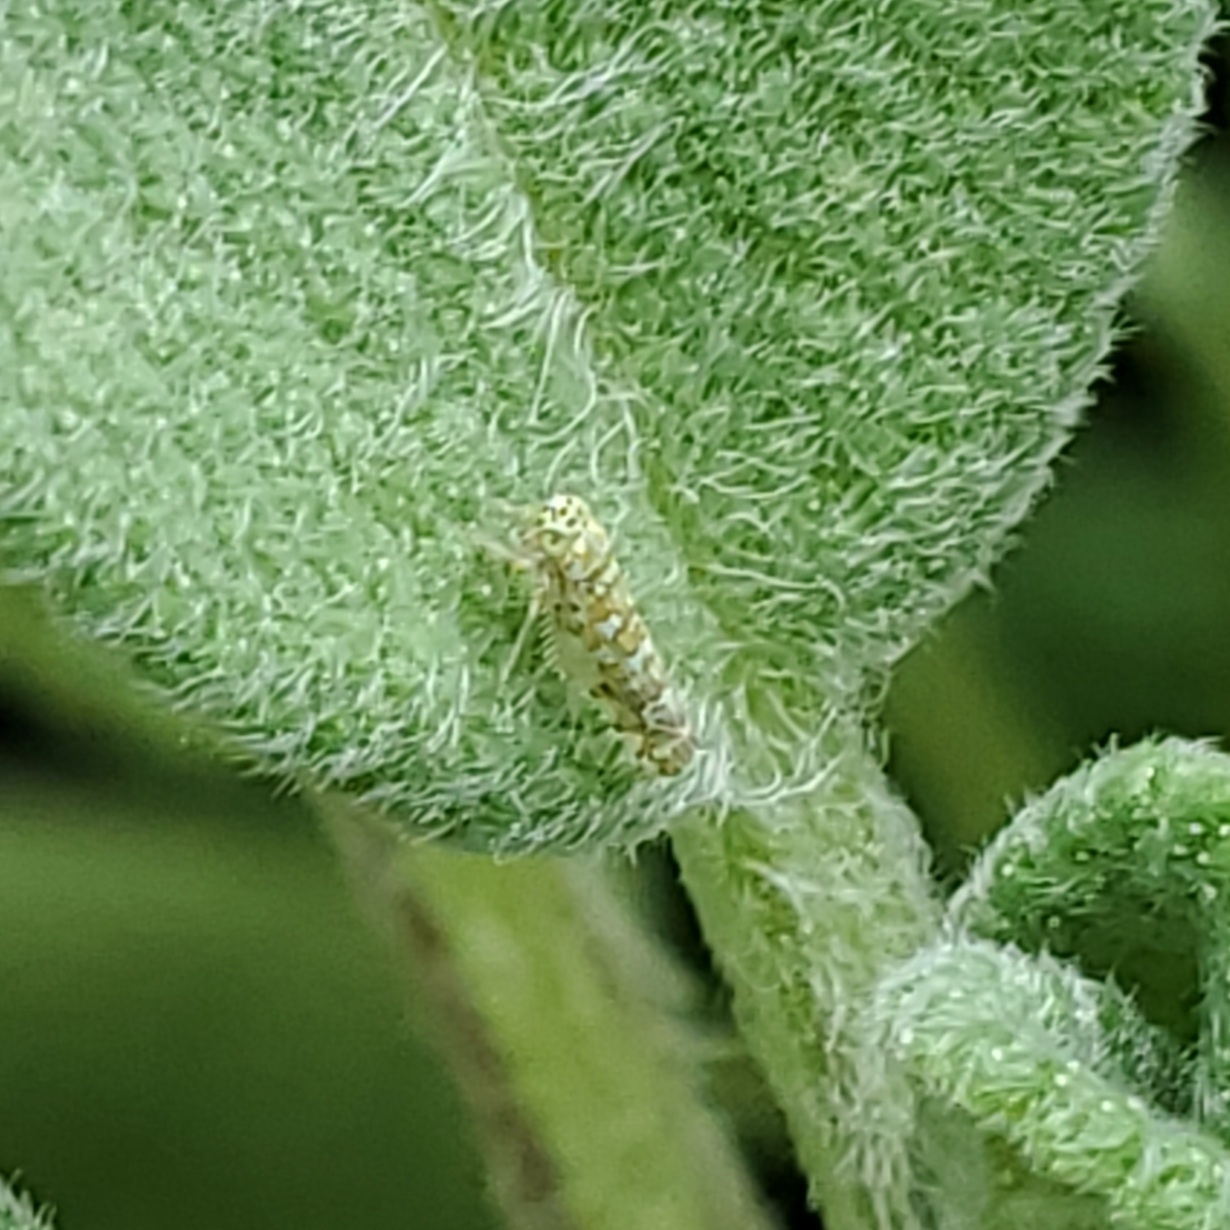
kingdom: Animalia
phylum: Arthropoda
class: Insecta
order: Hemiptera
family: Cicadellidae
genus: Eupteryx
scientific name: Eupteryx decemnotata
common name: Ligurian leafhopper
